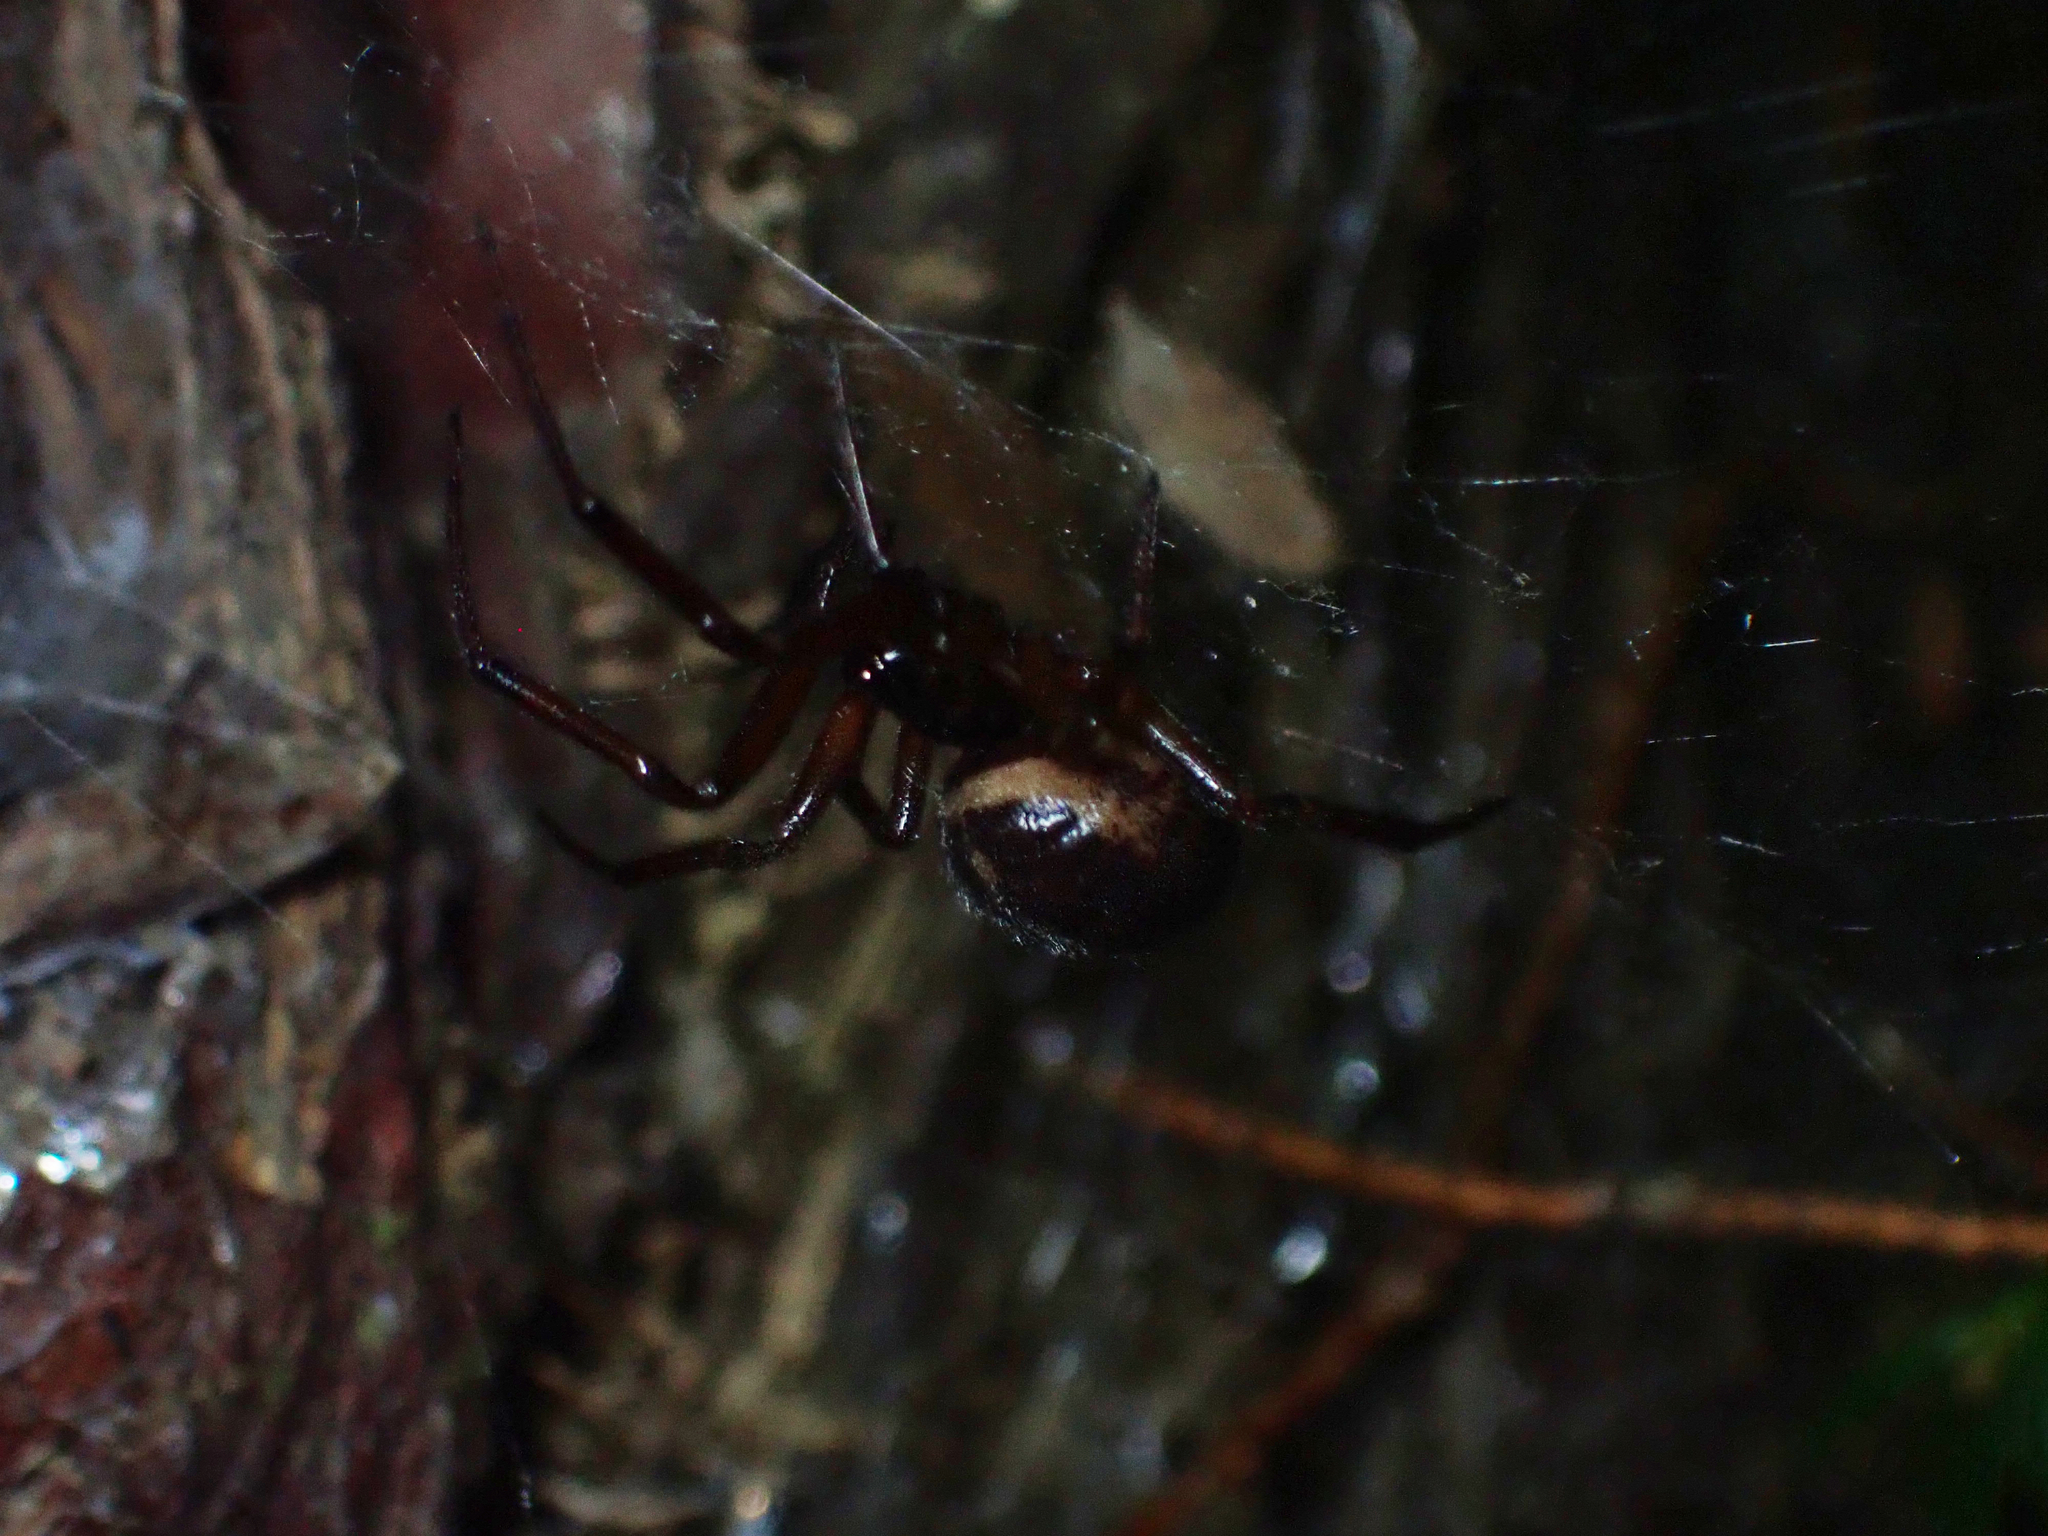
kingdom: Animalia
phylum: Arthropoda
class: Arachnida
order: Araneae
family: Theridiidae
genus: Steatoda
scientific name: Steatoda nobilis
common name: Cobweb weaver
